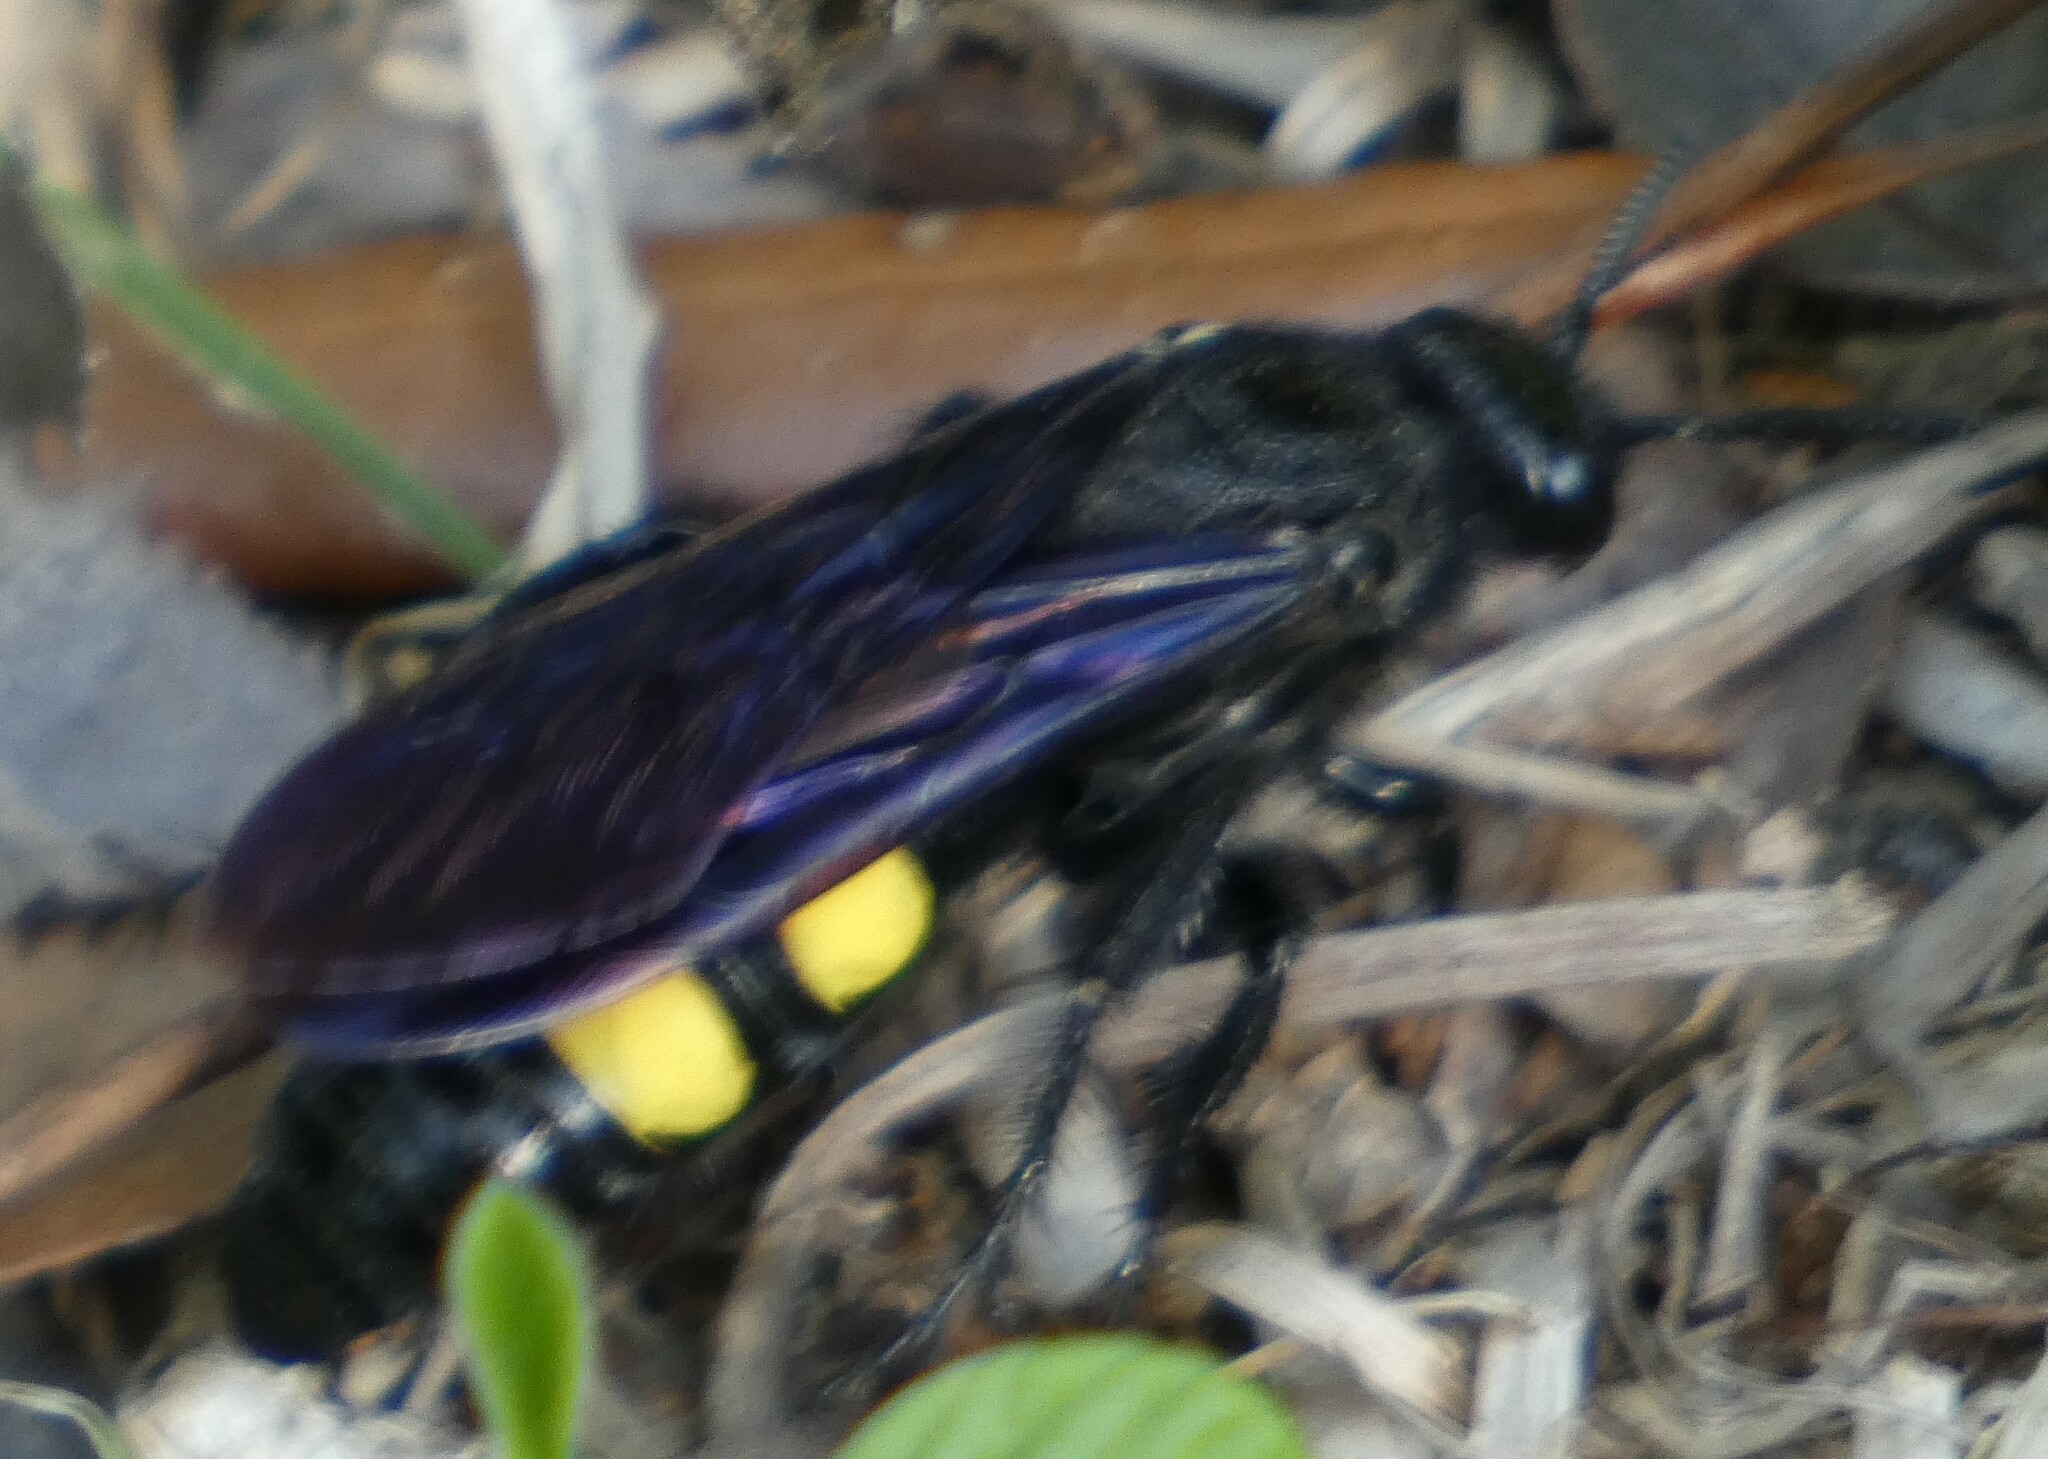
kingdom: Animalia
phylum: Arthropoda
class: Insecta
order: Hymenoptera
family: Scoliidae
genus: Pygodasis
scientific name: Pygodasis
